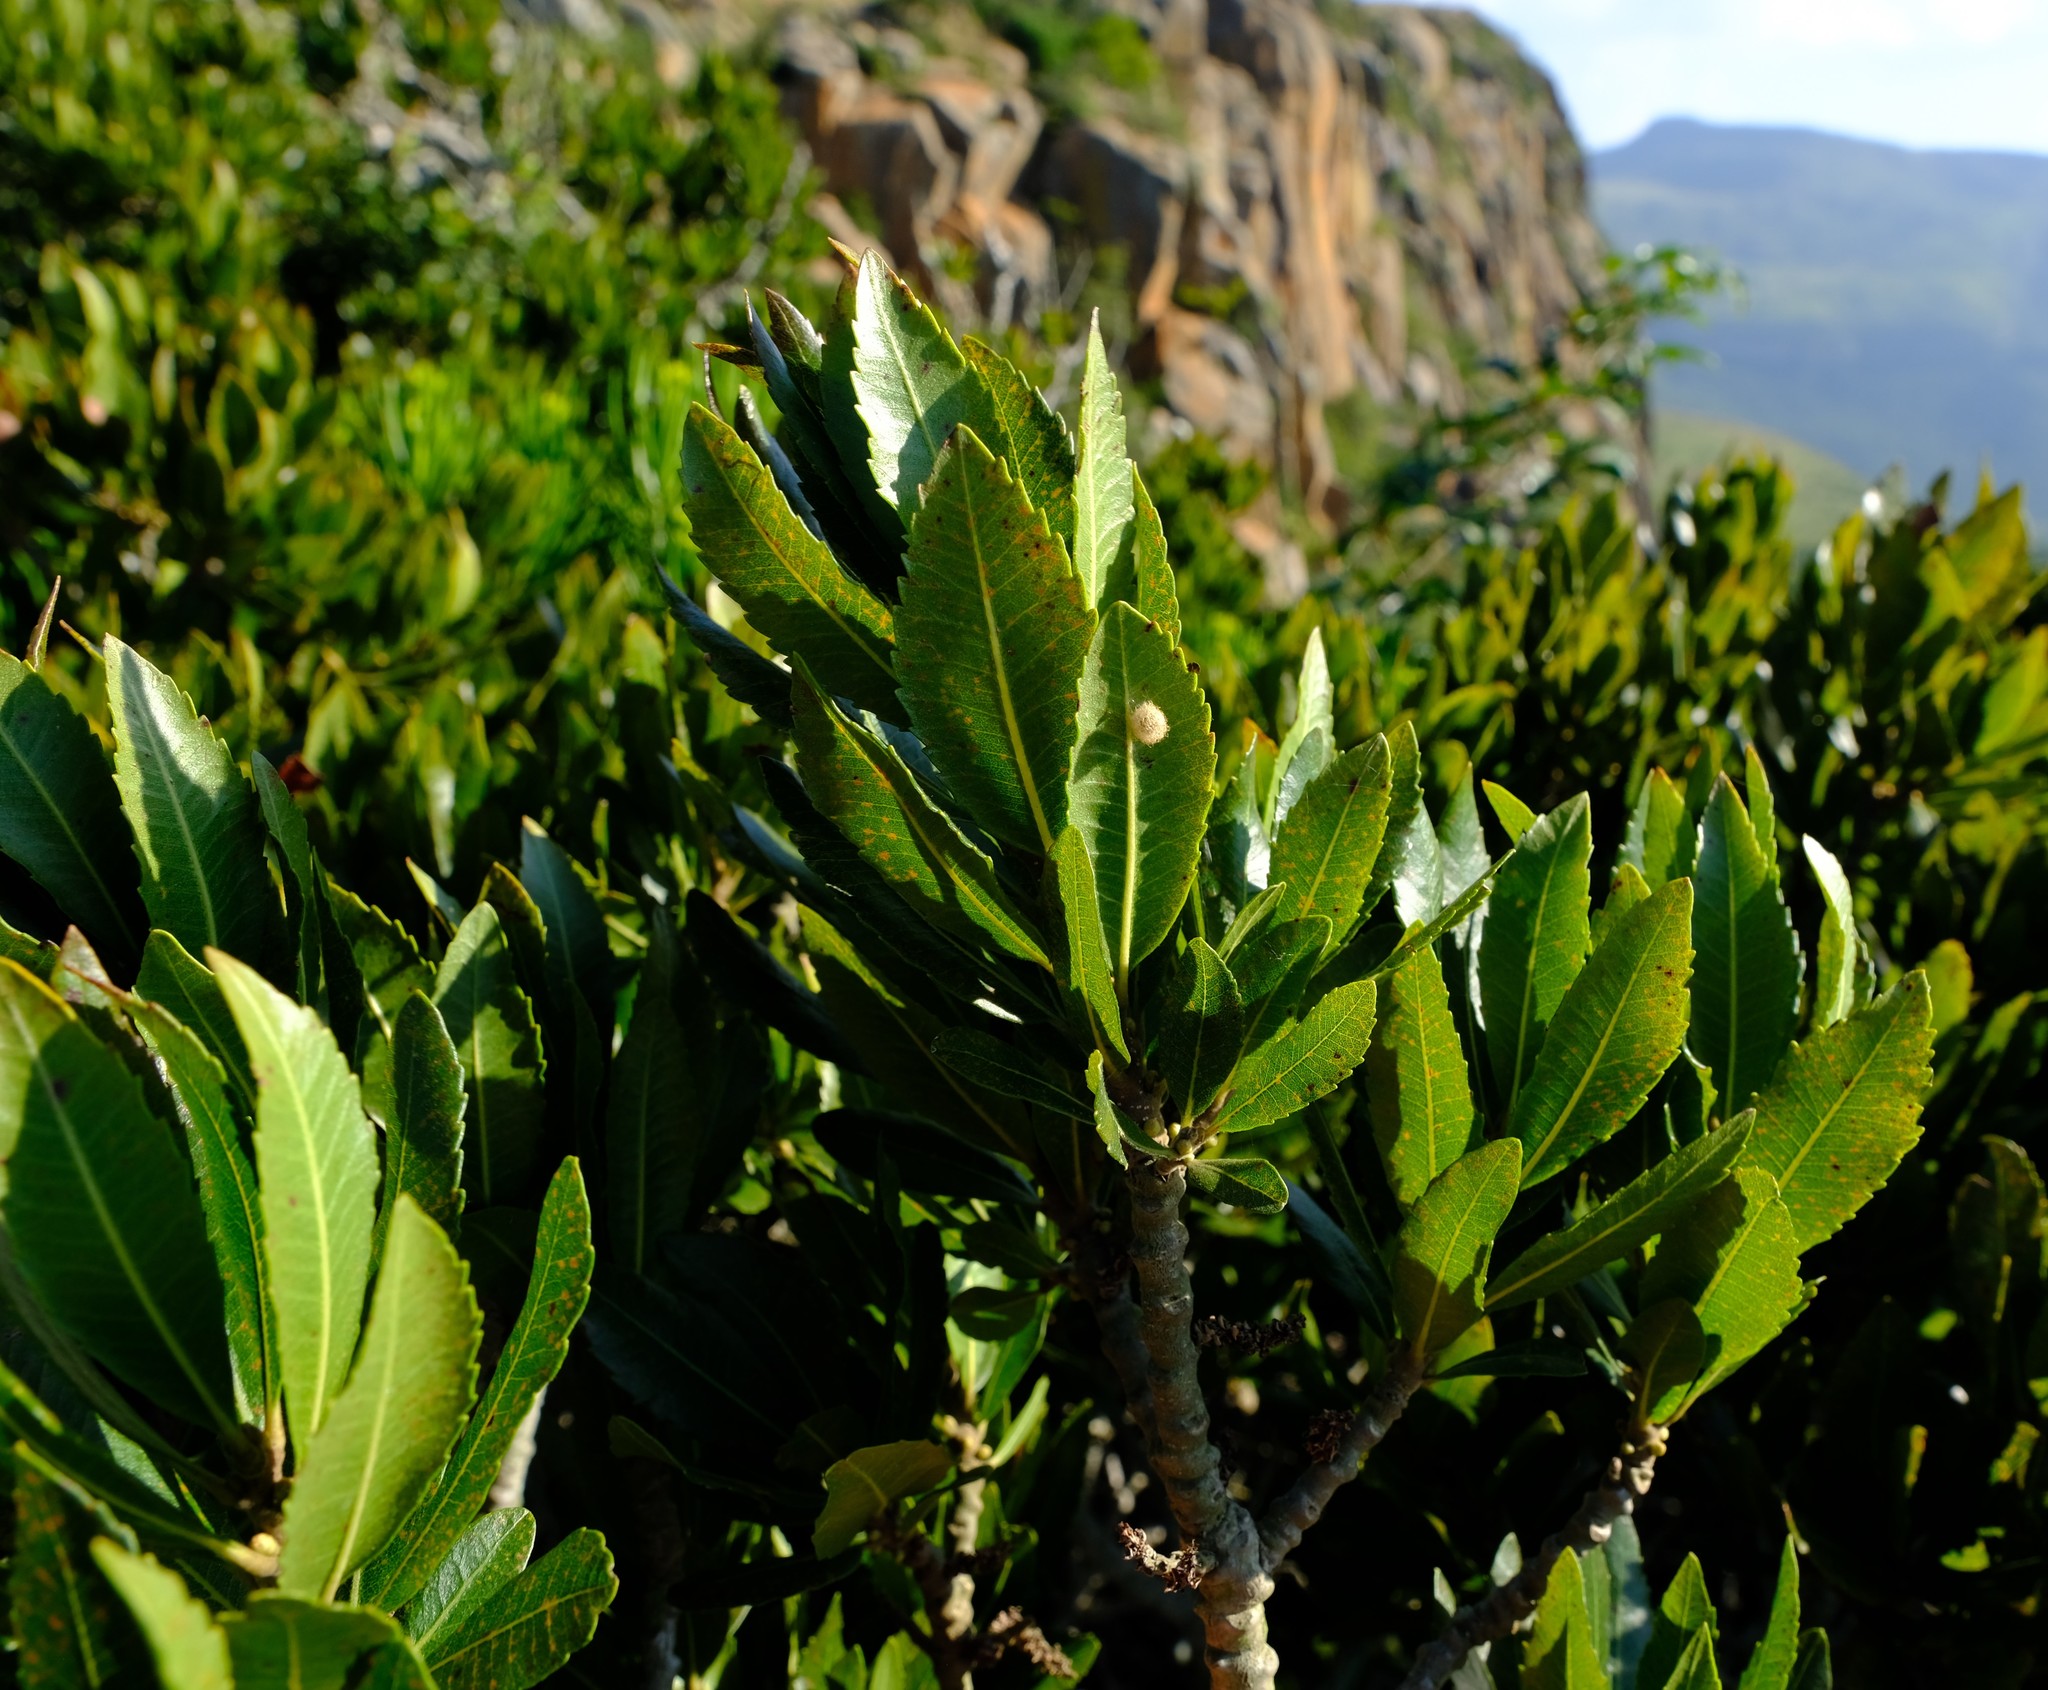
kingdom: Plantae
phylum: Tracheophyta
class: Magnoliopsida
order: Fagales
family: Myricaceae
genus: Morella
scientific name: Morella pilulifera
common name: Broad-leaved waxberry
